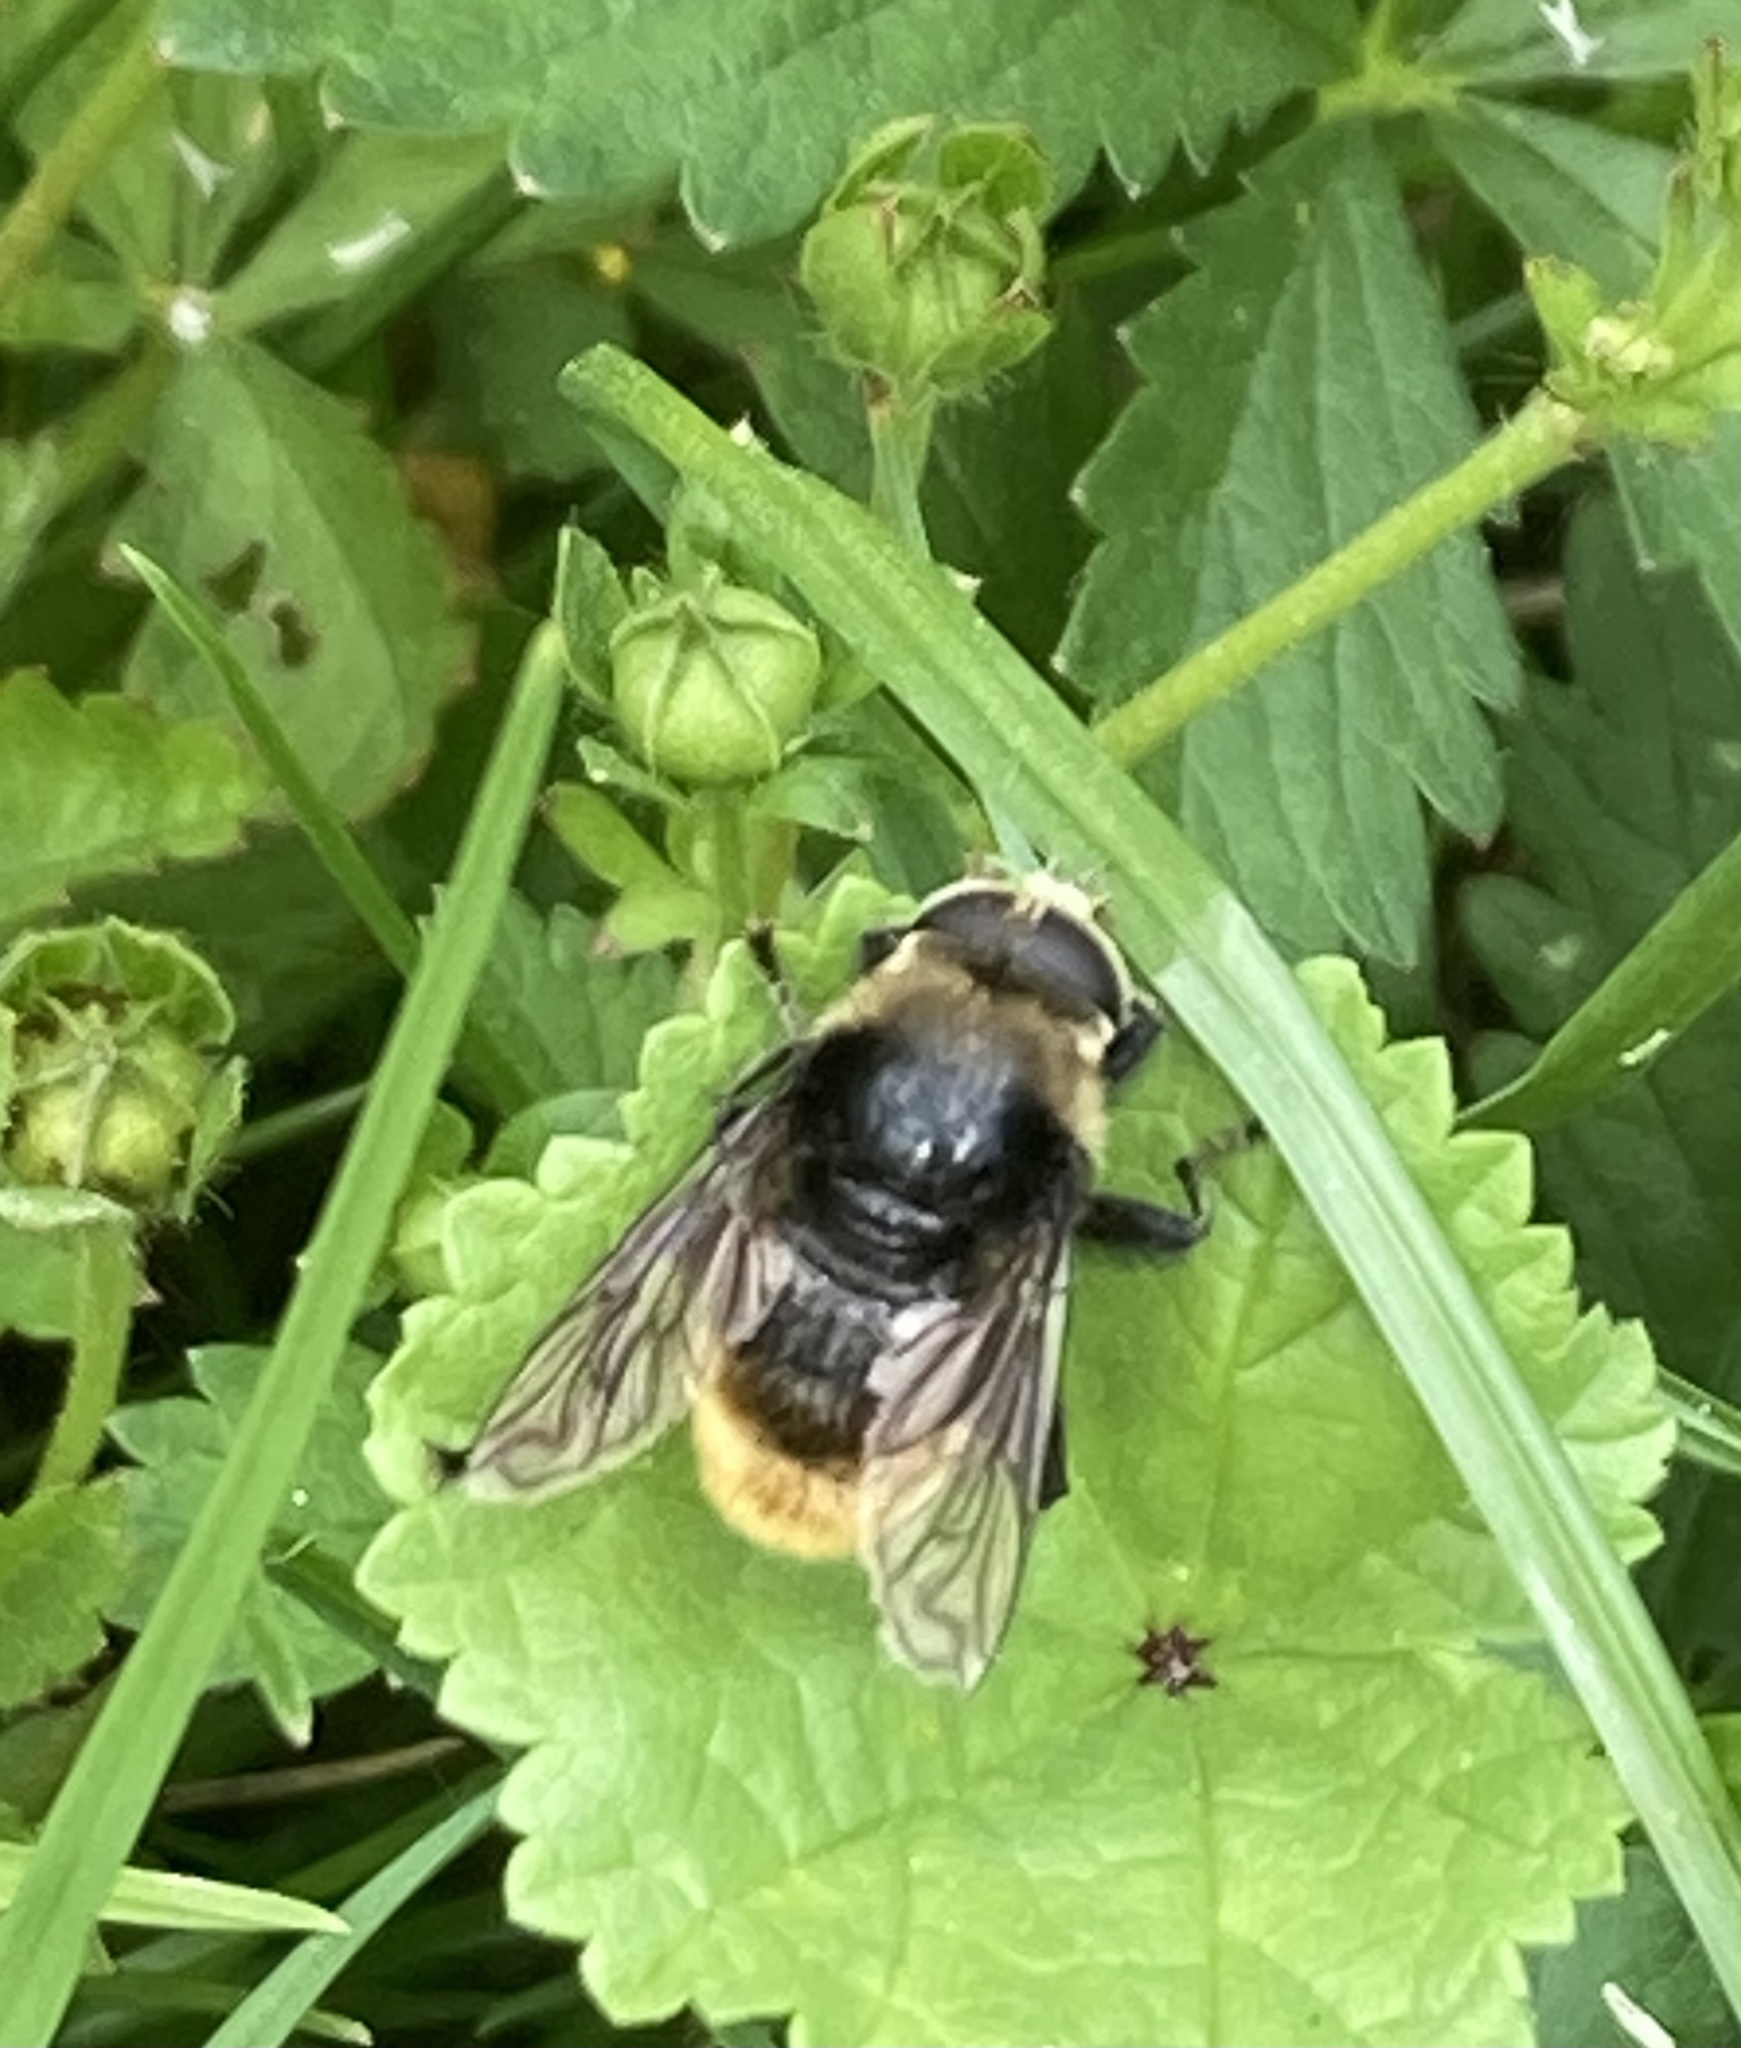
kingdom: Animalia
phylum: Arthropoda
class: Insecta
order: Diptera
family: Syrphidae
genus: Merodon
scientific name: Merodon equestris
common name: Greater bulb-fly
